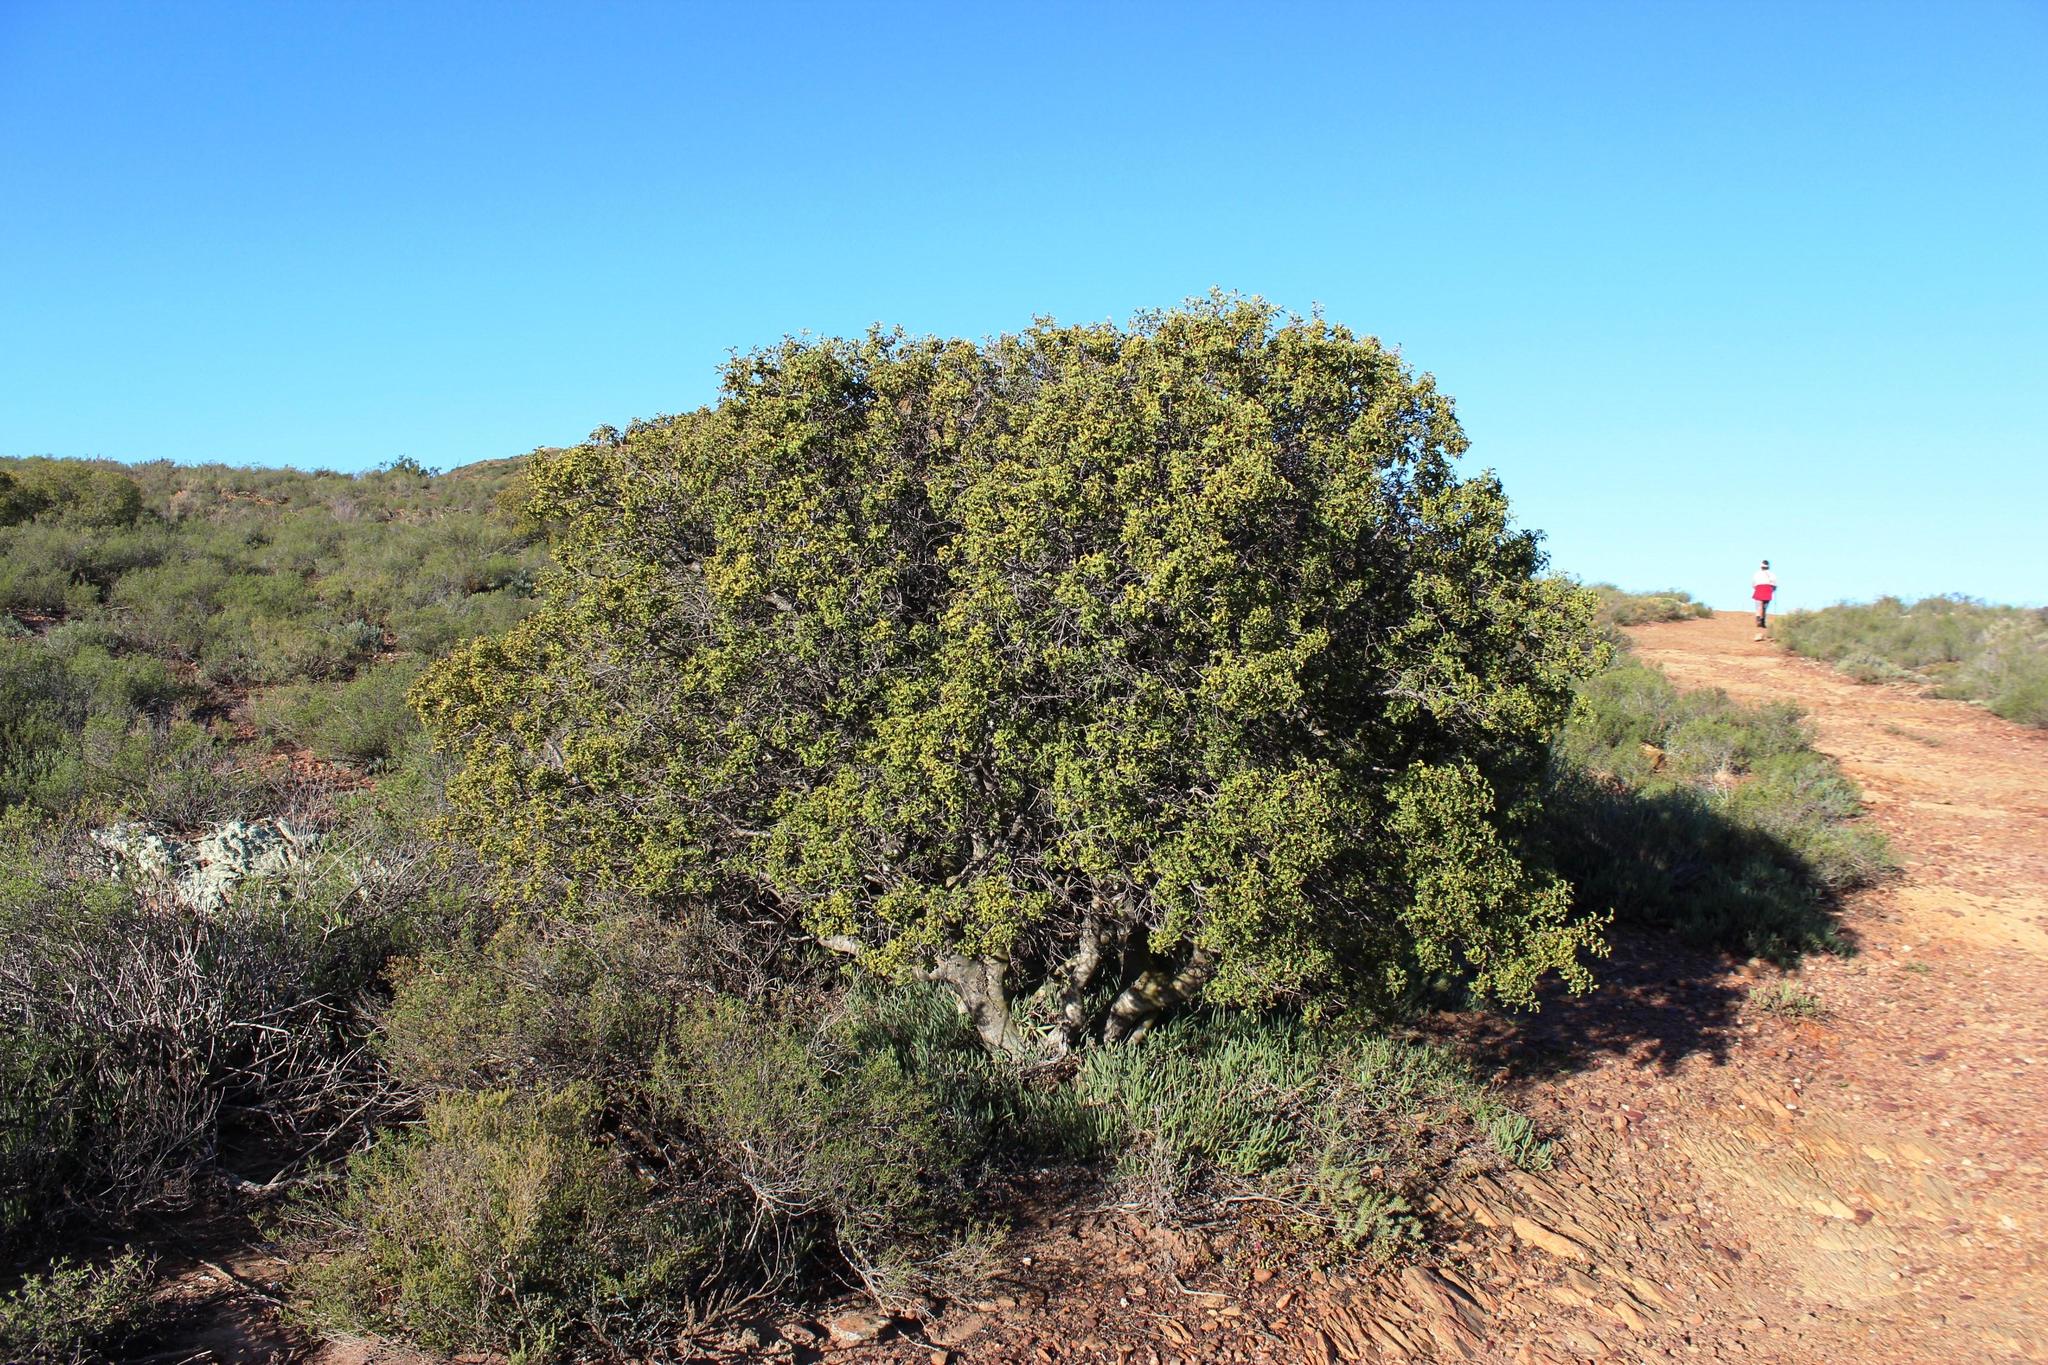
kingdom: Plantae
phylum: Tracheophyta
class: Magnoliopsida
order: Ericales
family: Ebenaceae
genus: Euclea
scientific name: Euclea undulata
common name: Small-leaved guarri
